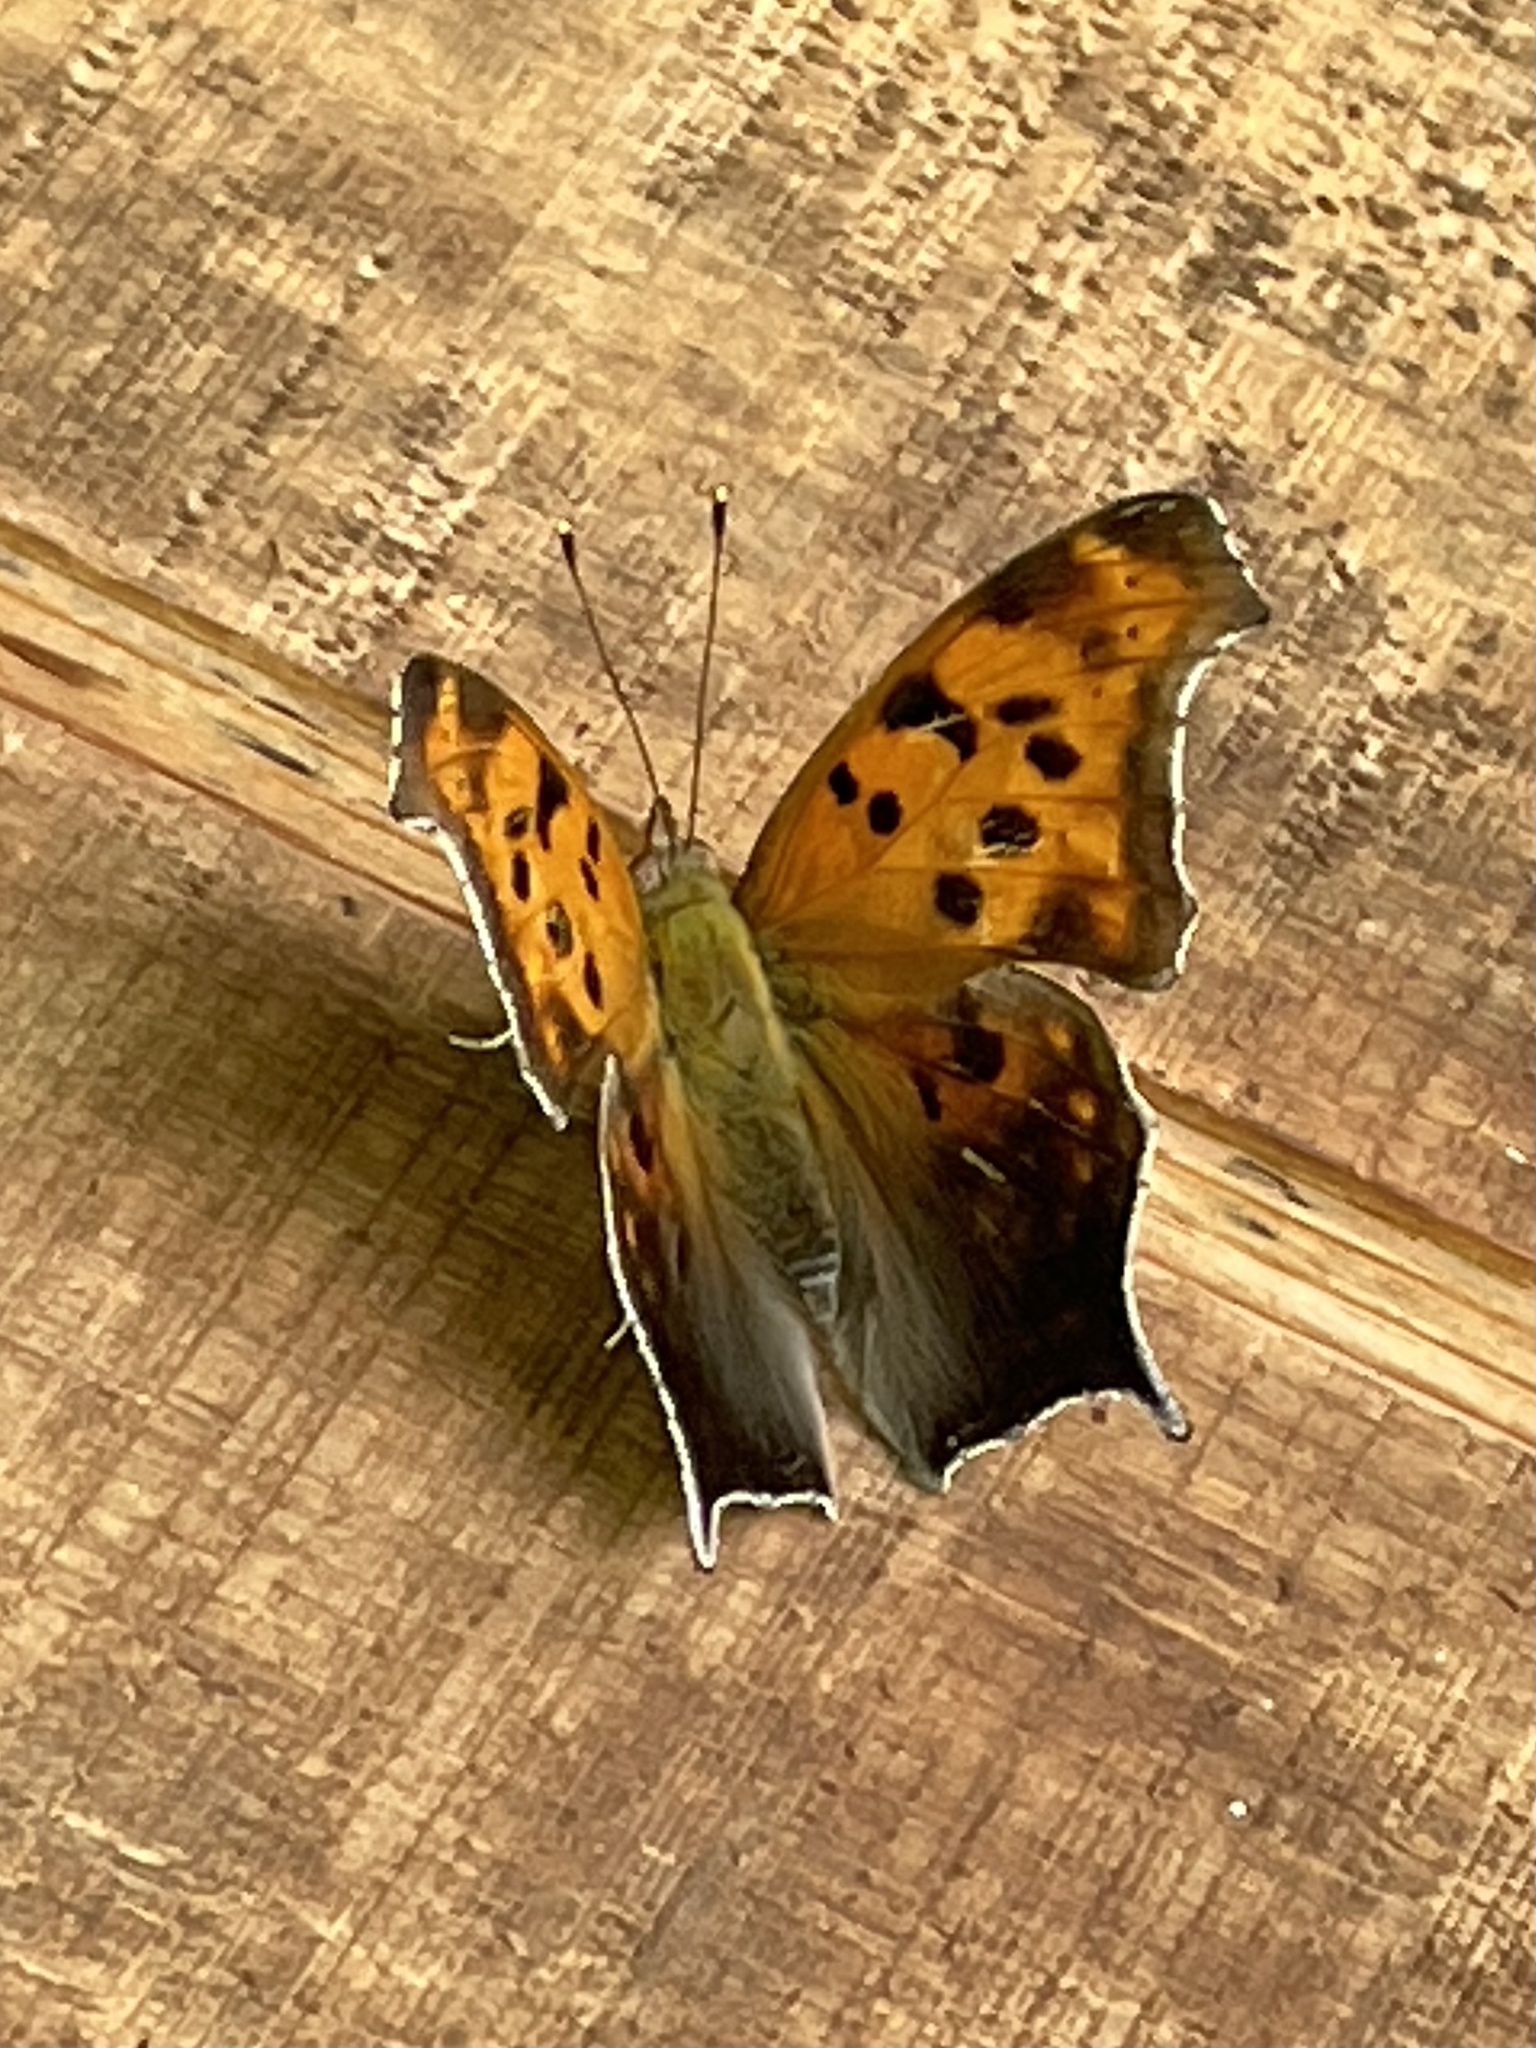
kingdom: Animalia
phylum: Arthropoda
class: Insecta
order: Lepidoptera
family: Nymphalidae
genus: Polygonia
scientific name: Polygonia interrogationis
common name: Question mark
